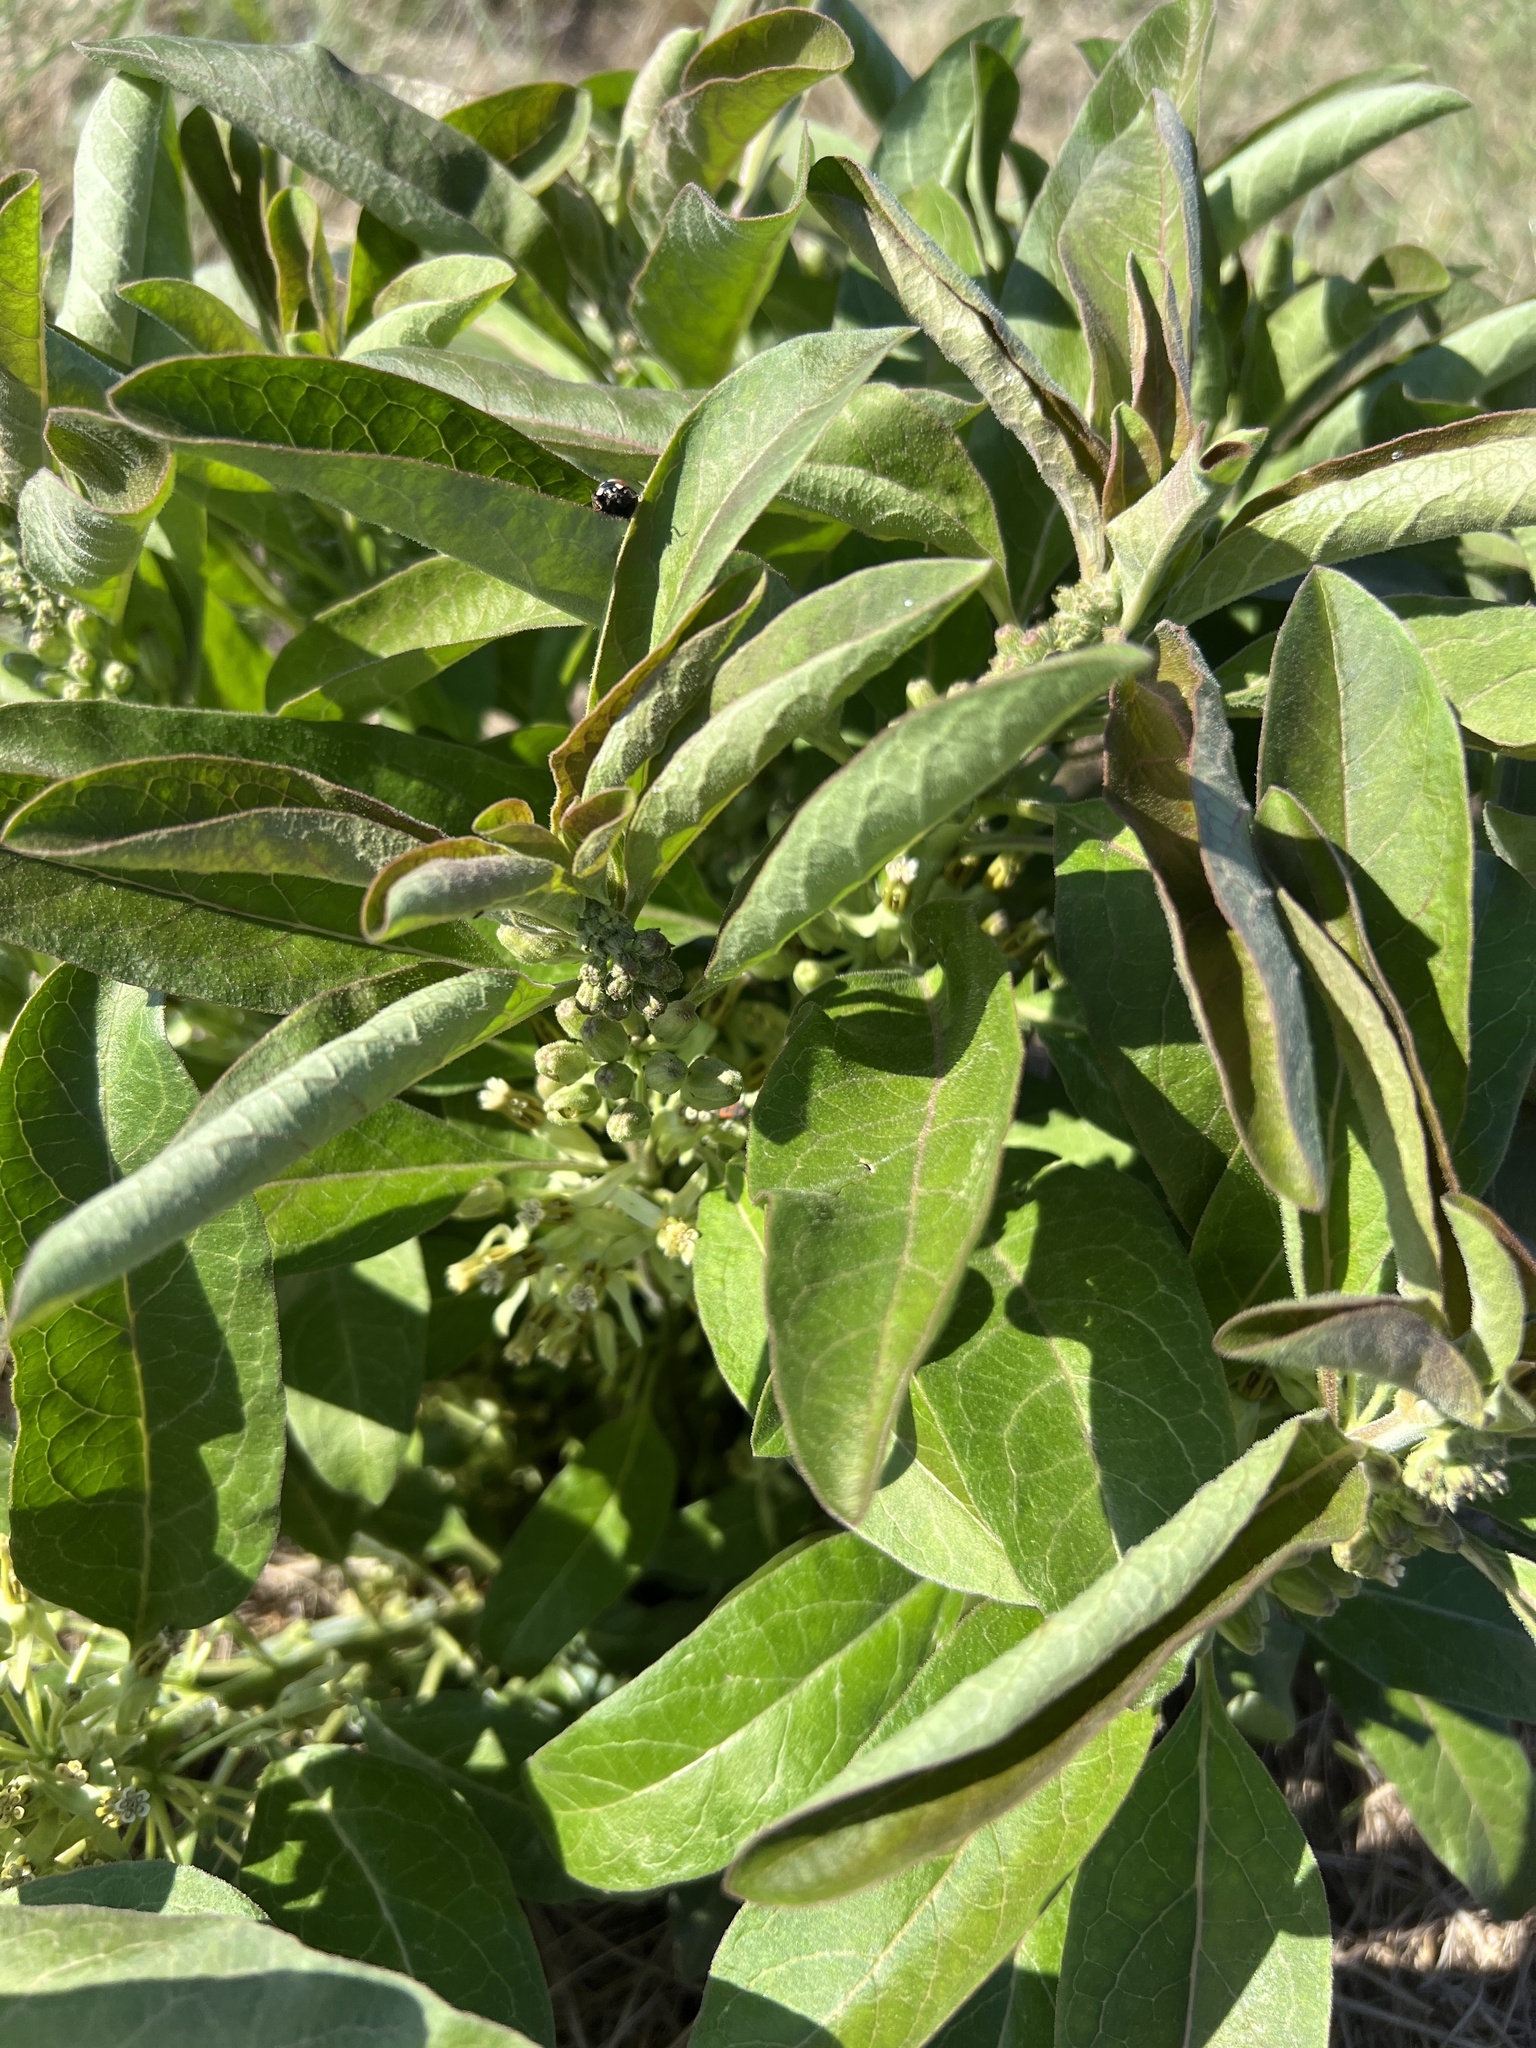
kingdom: Plantae
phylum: Tracheophyta
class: Magnoliopsida
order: Gentianales
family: Apocynaceae
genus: Asclepias
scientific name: Asclepias oenotheroides
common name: Zizotes milkweed
